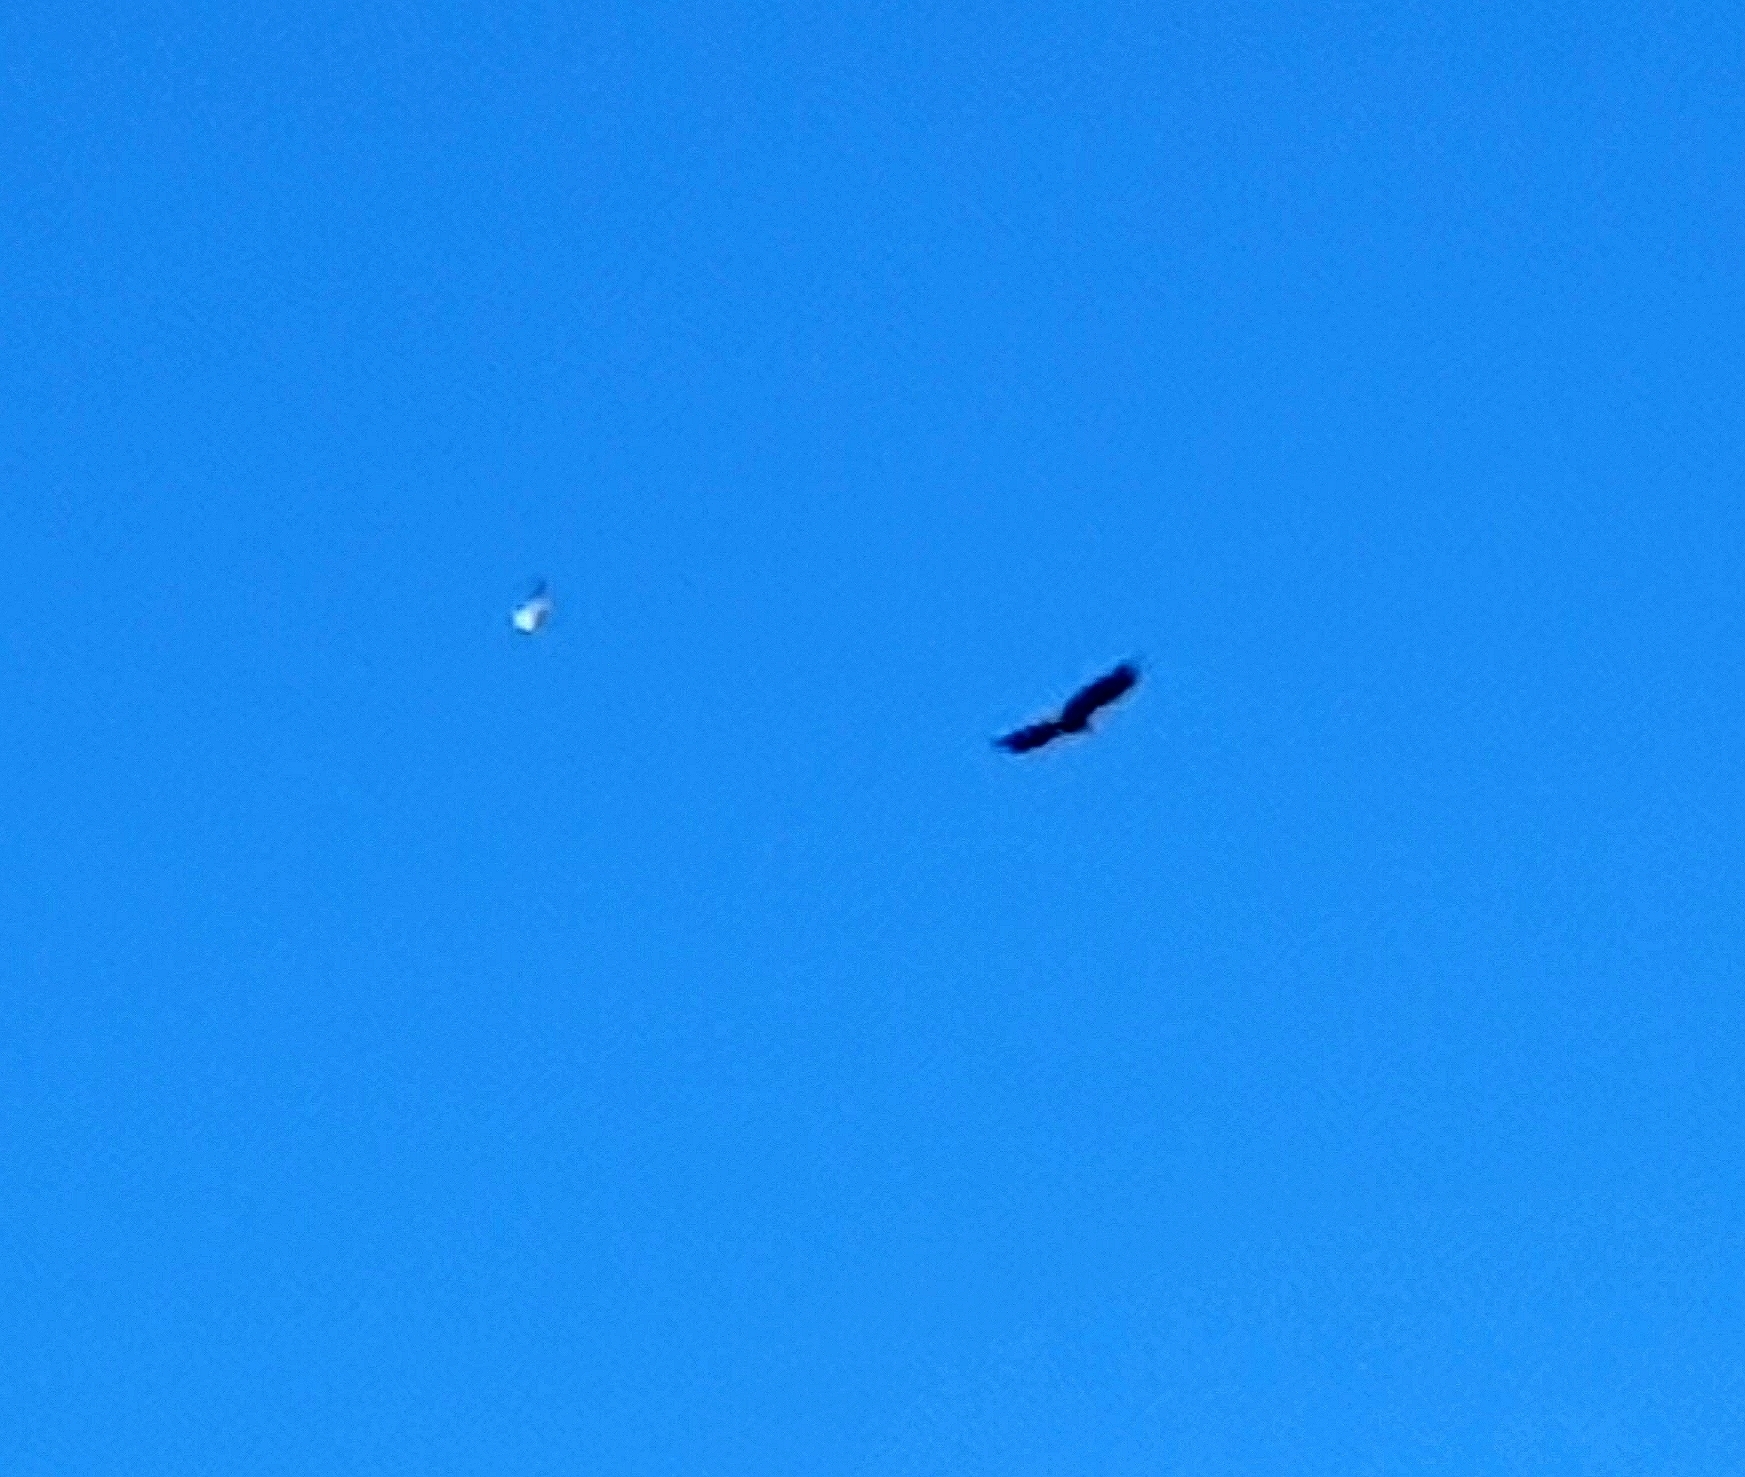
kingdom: Animalia
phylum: Chordata
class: Aves
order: Accipitriformes
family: Accipitridae
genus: Haliaeetus
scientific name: Haliaeetus albicilla
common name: White-tailed eagle
